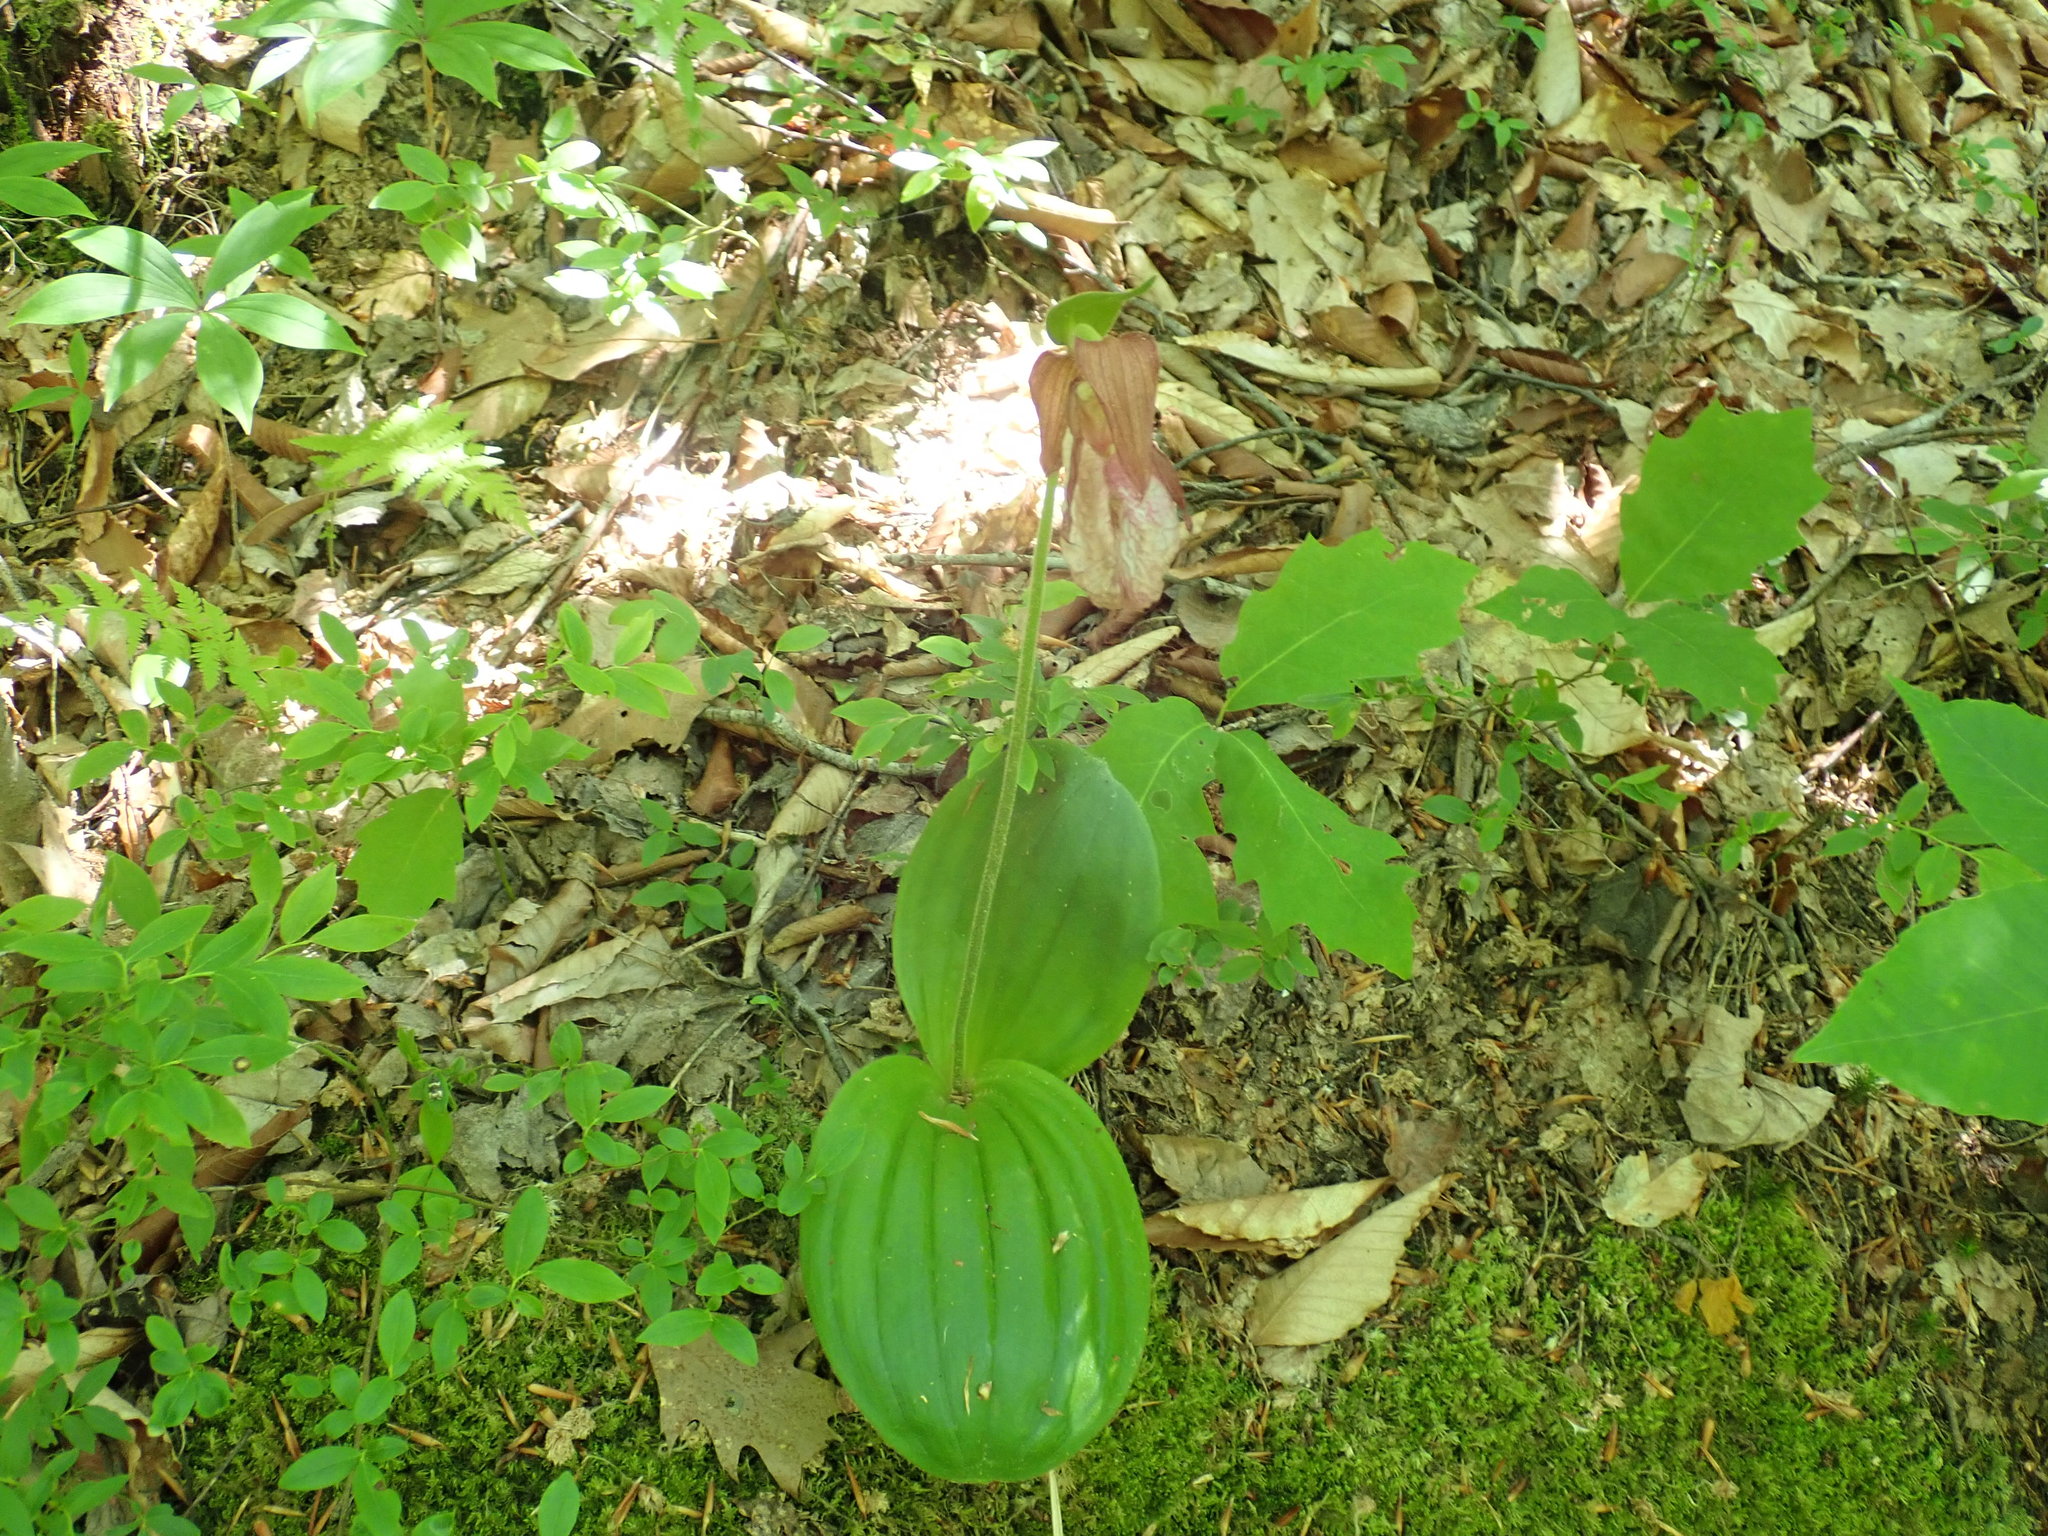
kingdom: Plantae
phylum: Tracheophyta
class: Liliopsida
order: Asparagales
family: Orchidaceae
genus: Cypripedium
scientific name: Cypripedium acaule
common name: Pink lady's-slipper
